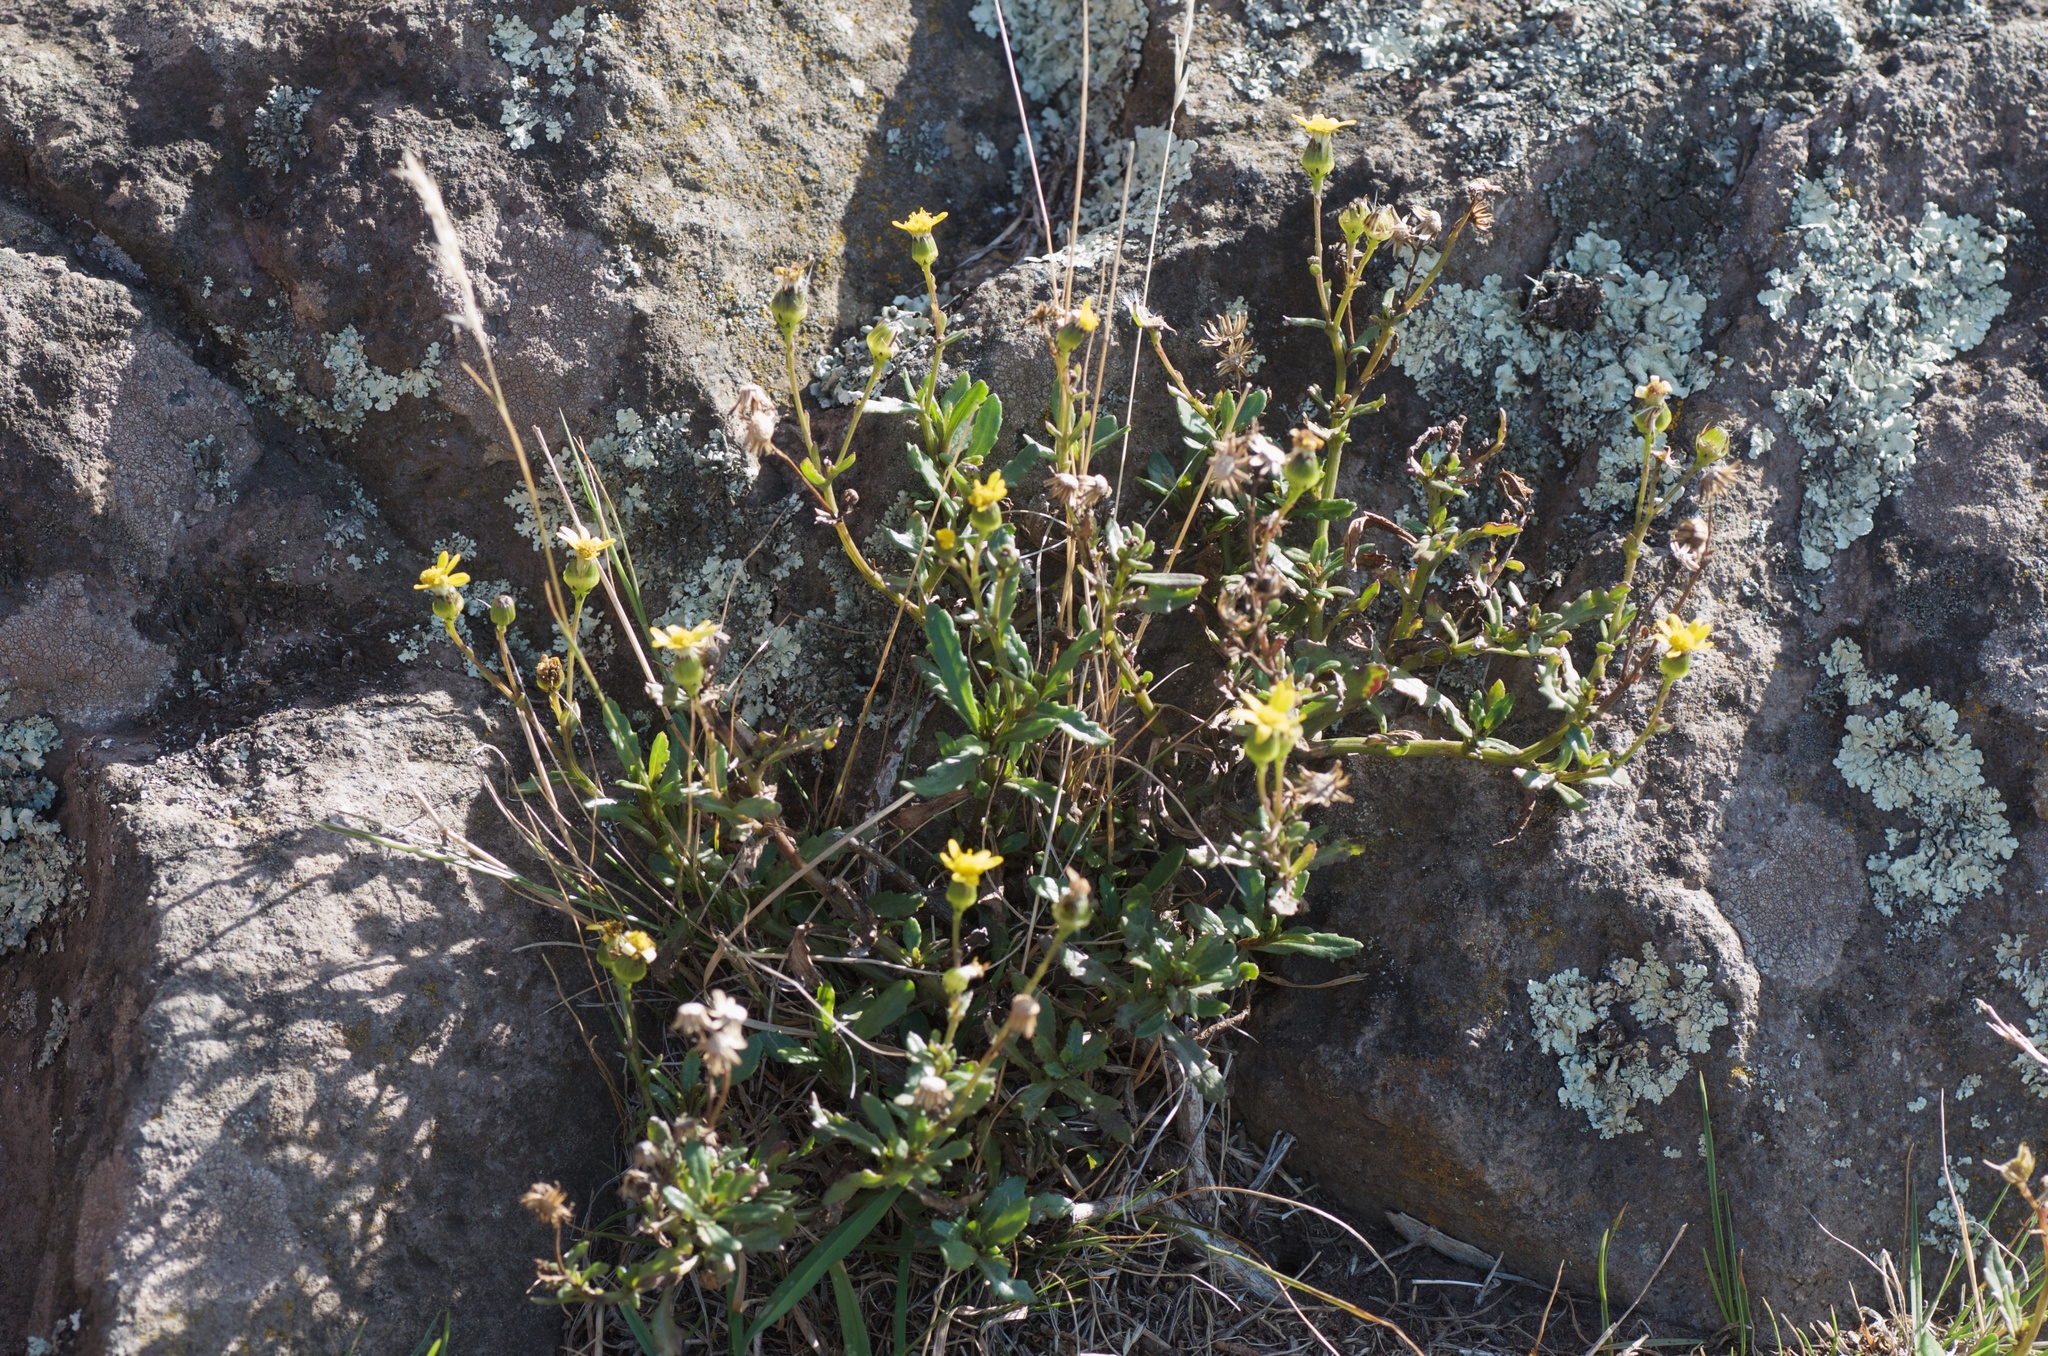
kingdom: Plantae
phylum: Tracheophyta
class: Magnoliopsida
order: Asterales
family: Asteraceae
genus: Senecio
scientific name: Senecio matatini
